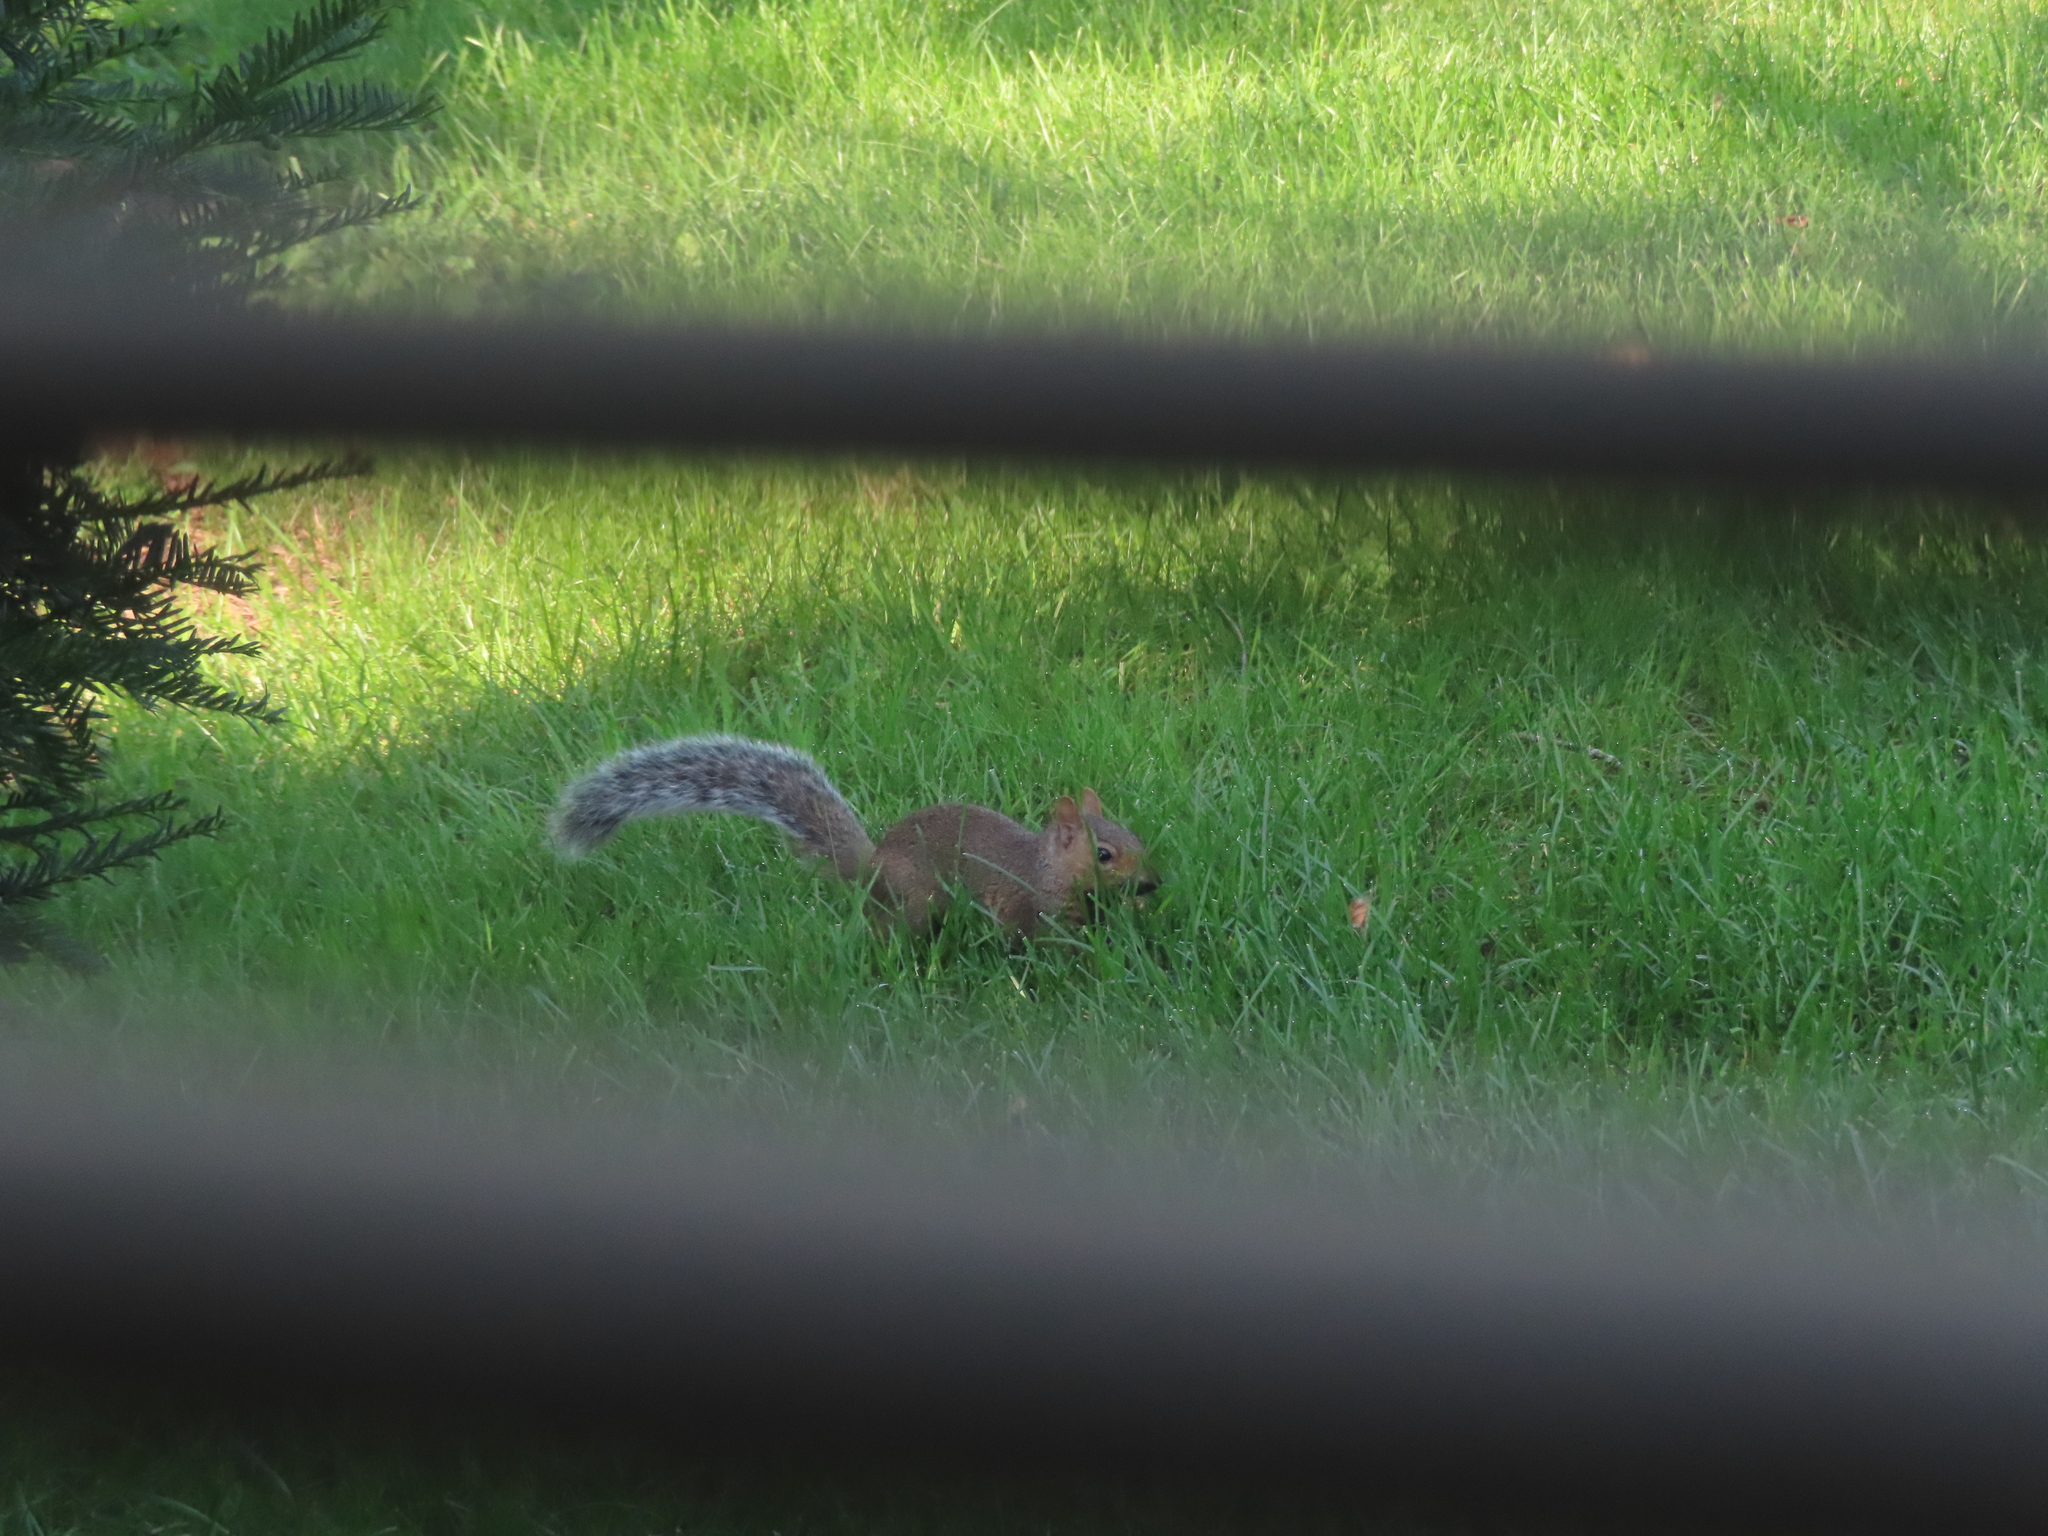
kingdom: Animalia
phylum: Chordata
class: Mammalia
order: Rodentia
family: Sciuridae
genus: Sciurus
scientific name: Sciurus carolinensis
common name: Eastern gray squirrel
